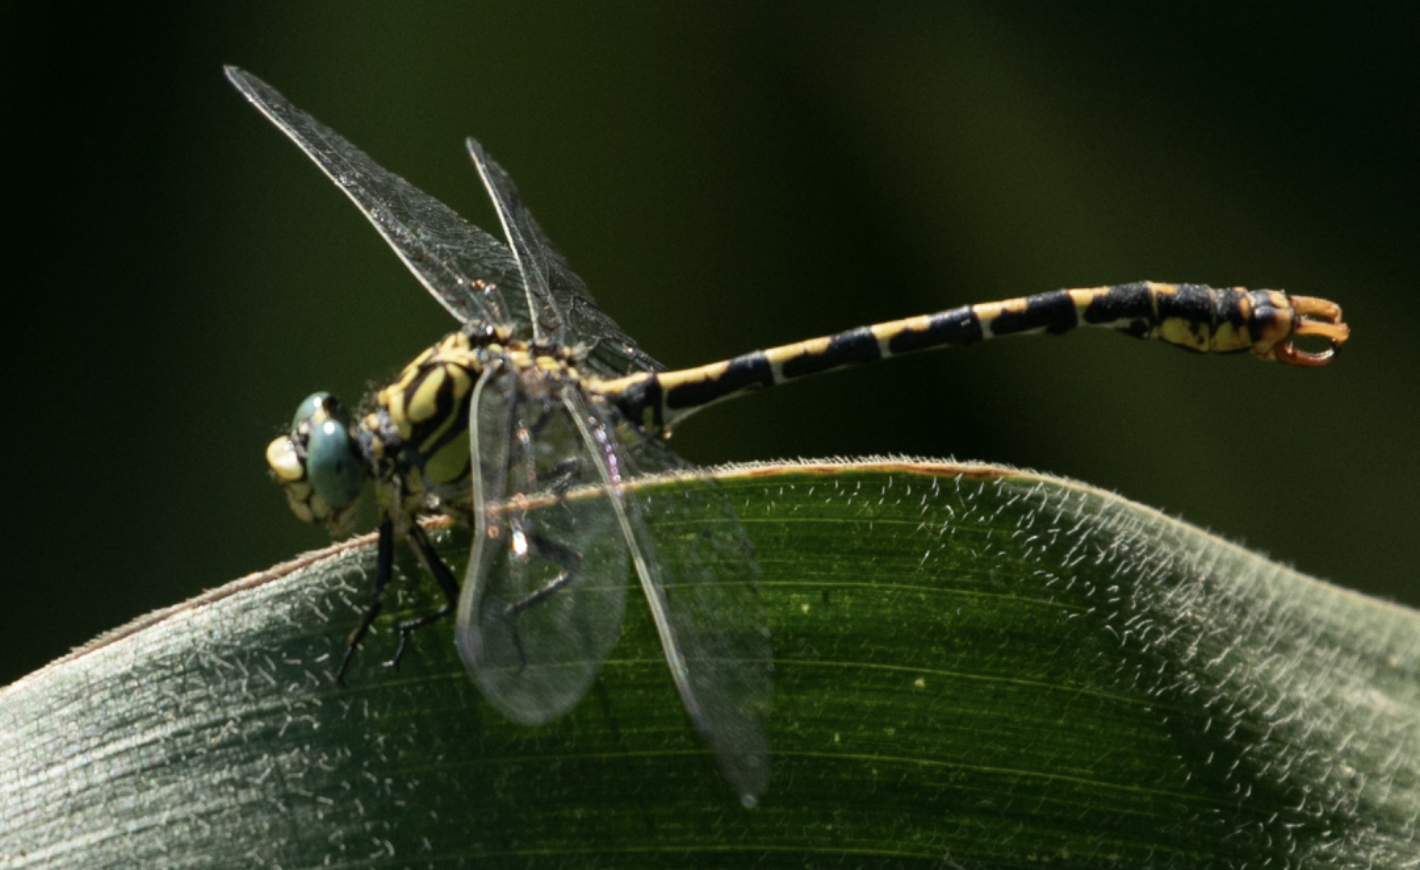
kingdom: Animalia
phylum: Arthropoda
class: Insecta
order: Odonata
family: Gomphidae
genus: Onychogomphus
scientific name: Onychogomphus forcipatus
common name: Small pincertail
